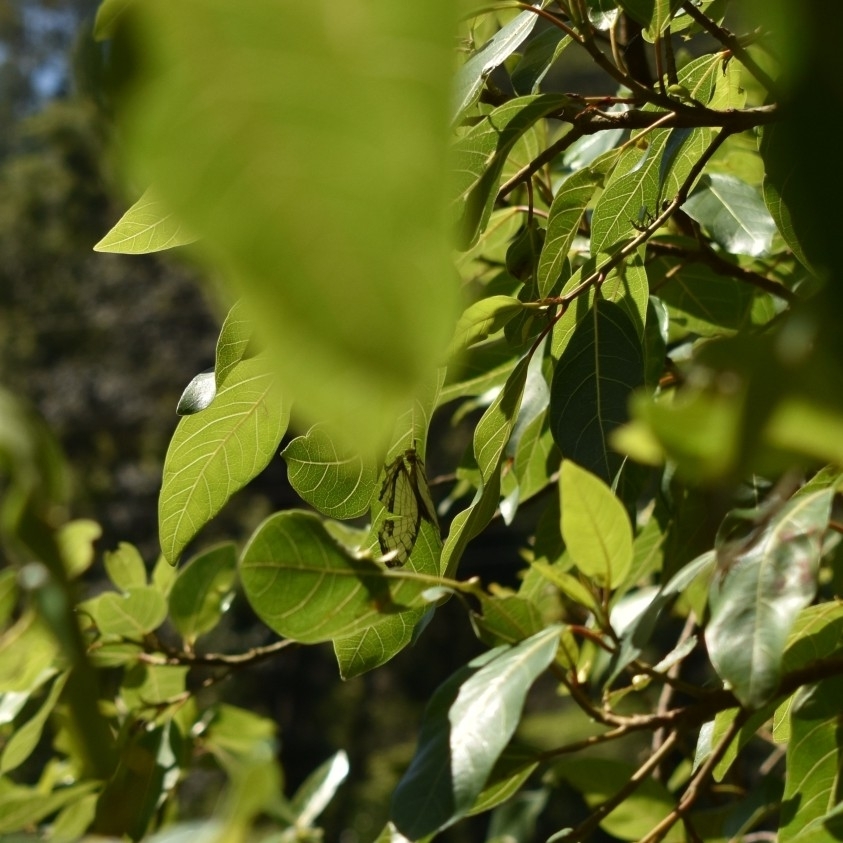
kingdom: Animalia
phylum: Arthropoda
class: Insecta
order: Lepidoptera
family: Nymphalidae
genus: Cyrestis
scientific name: Cyrestis thyodamas
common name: Common mapwing
